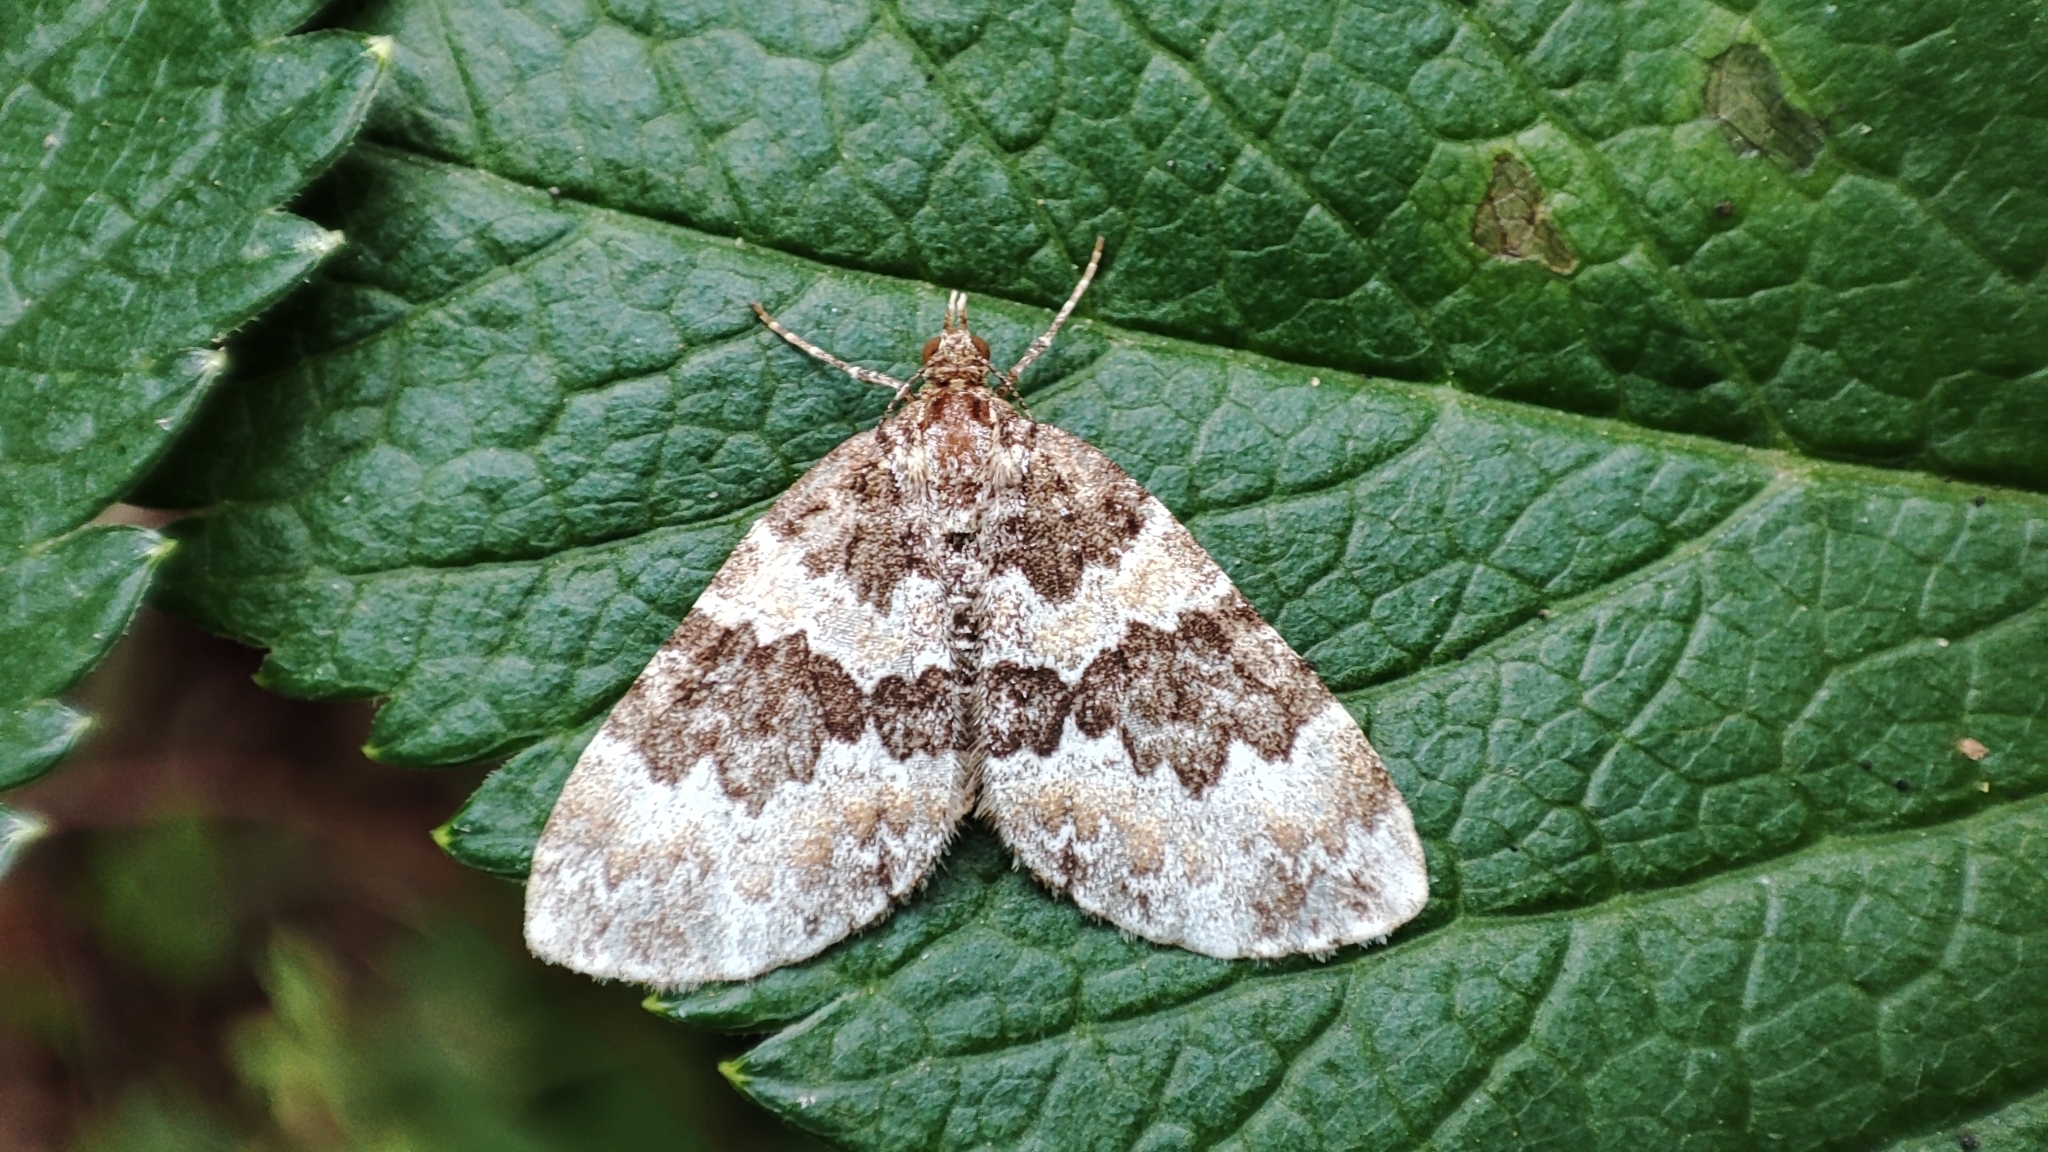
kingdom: Animalia
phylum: Arthropoda
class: Insecta
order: Lepidoptera
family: Geometridae
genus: Electrophaes
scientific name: Electrophaes corylata
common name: Broken-barred carpet
